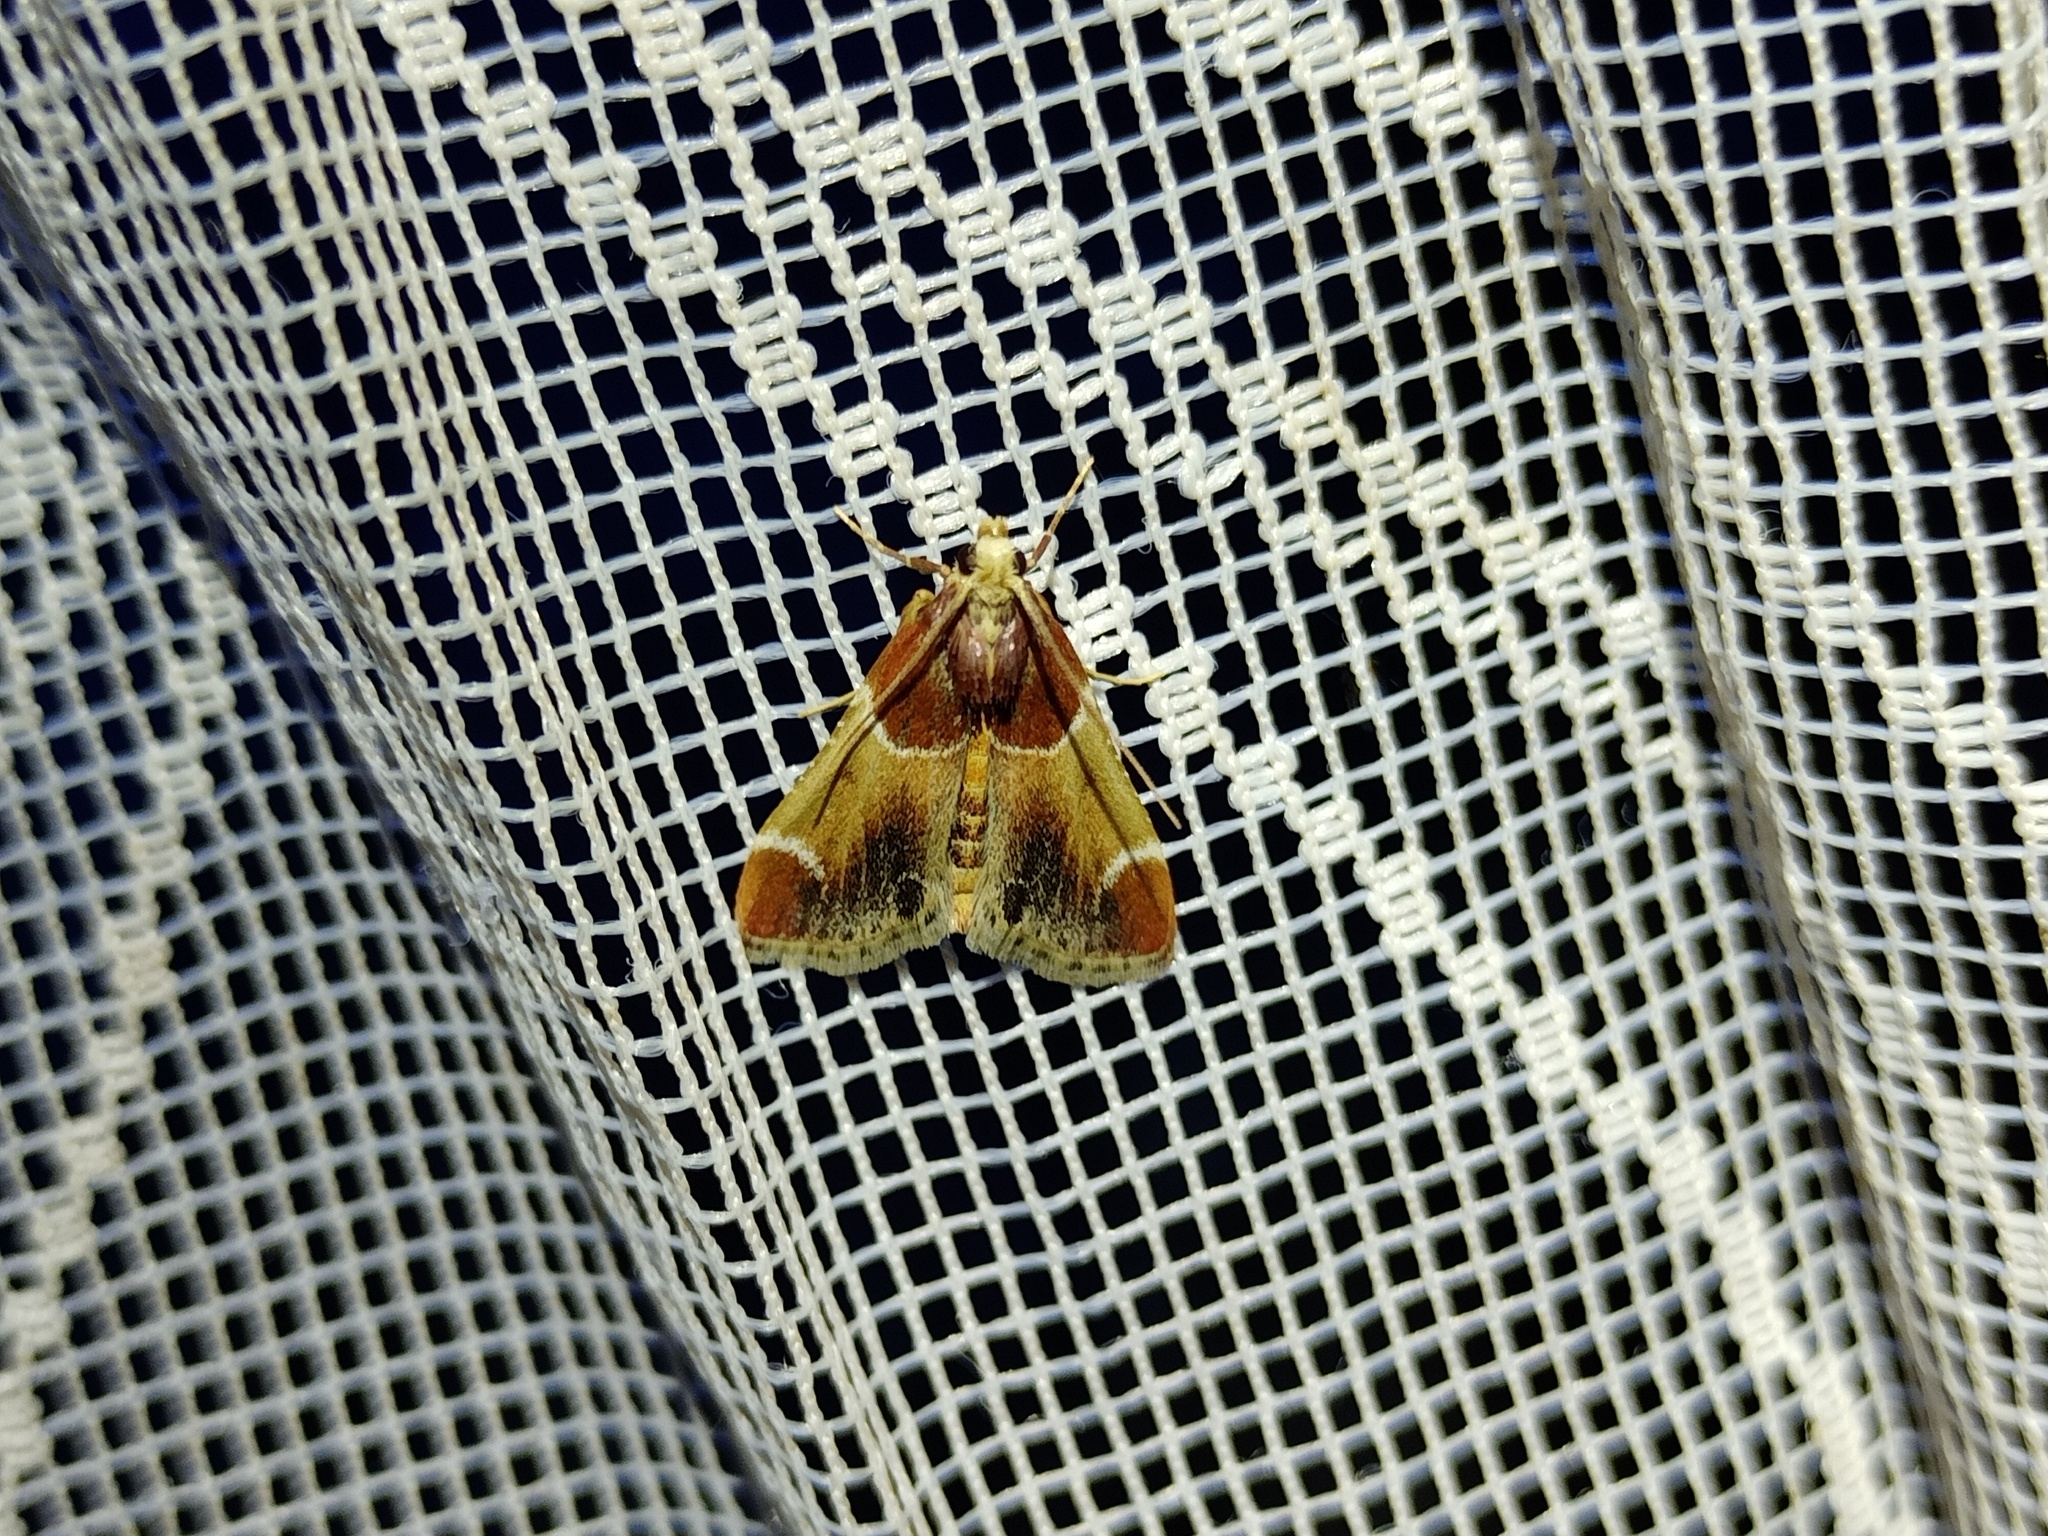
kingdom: Animalia
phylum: Arthropoda
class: Insecta
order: Lepidoptera
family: Pyralidae
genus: Pyralis
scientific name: Pyralis farinalis
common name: Meal moth
